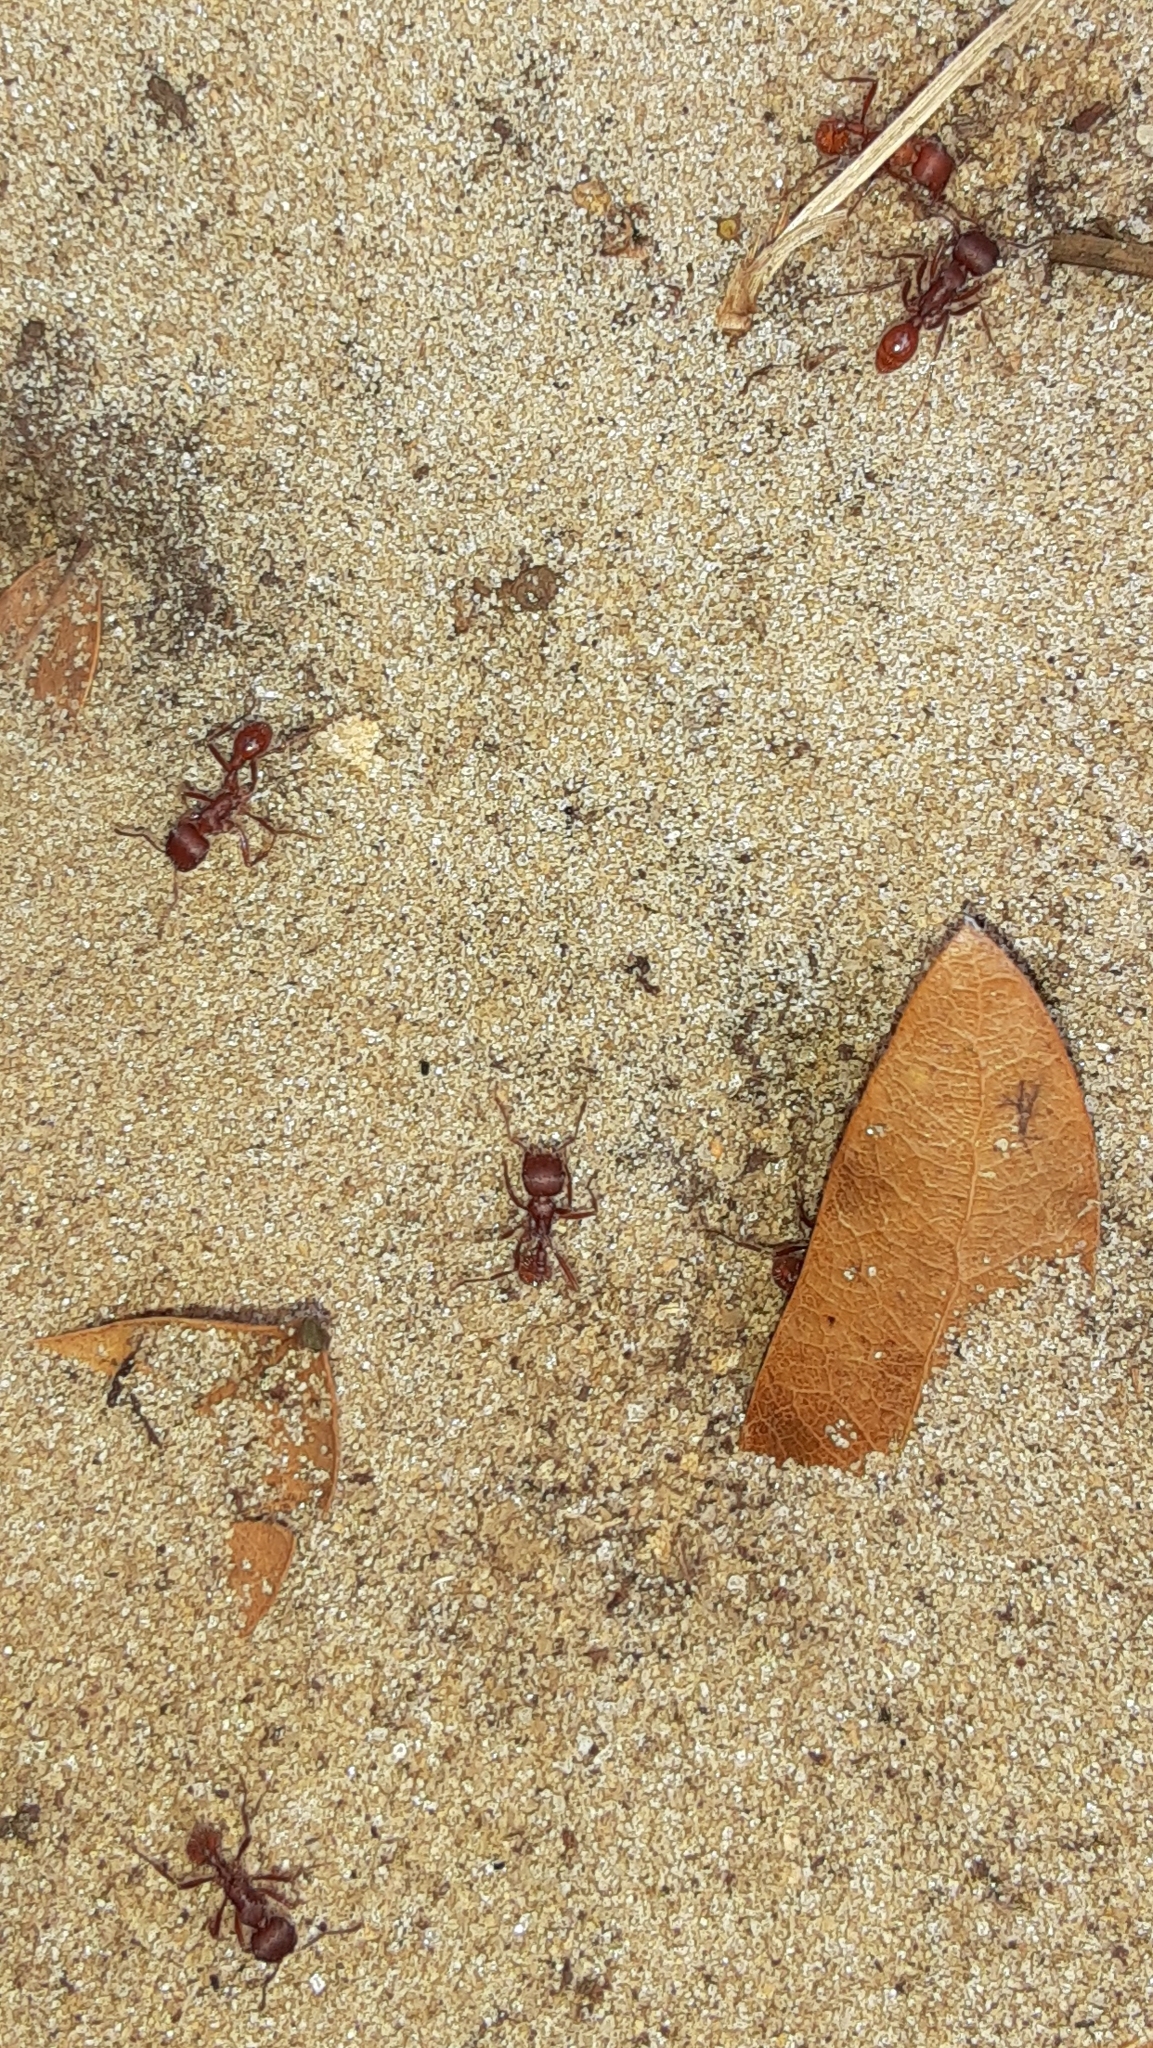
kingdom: Animalia
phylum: Arthropoda
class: Insecta
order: Hymenoptera
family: Formicidae
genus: Pogonomyrmex
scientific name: Pogonomyrmex badius
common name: Florida harvester ant
